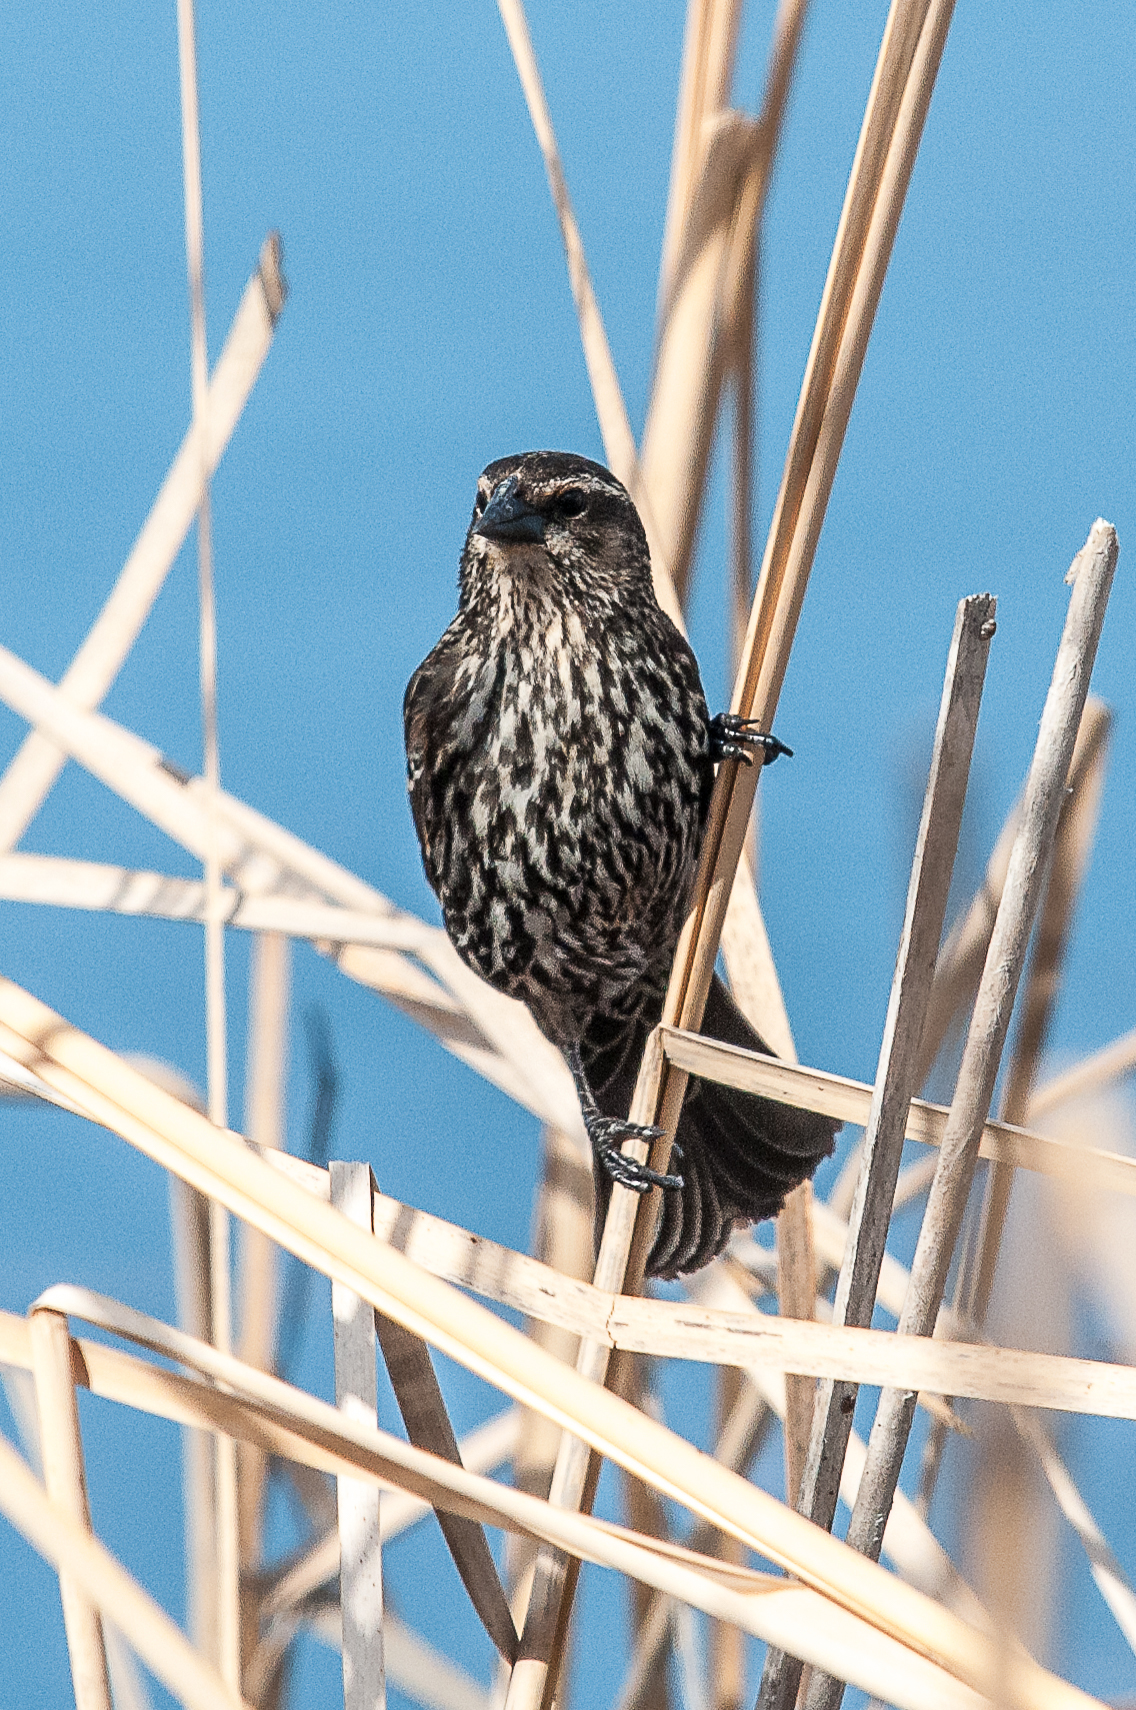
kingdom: Animalia
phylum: Chordata
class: Aves
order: Passeriformes
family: Icteridae
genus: Agelaius
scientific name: Agelaius phoeniceus
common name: Red-winged blackbird
